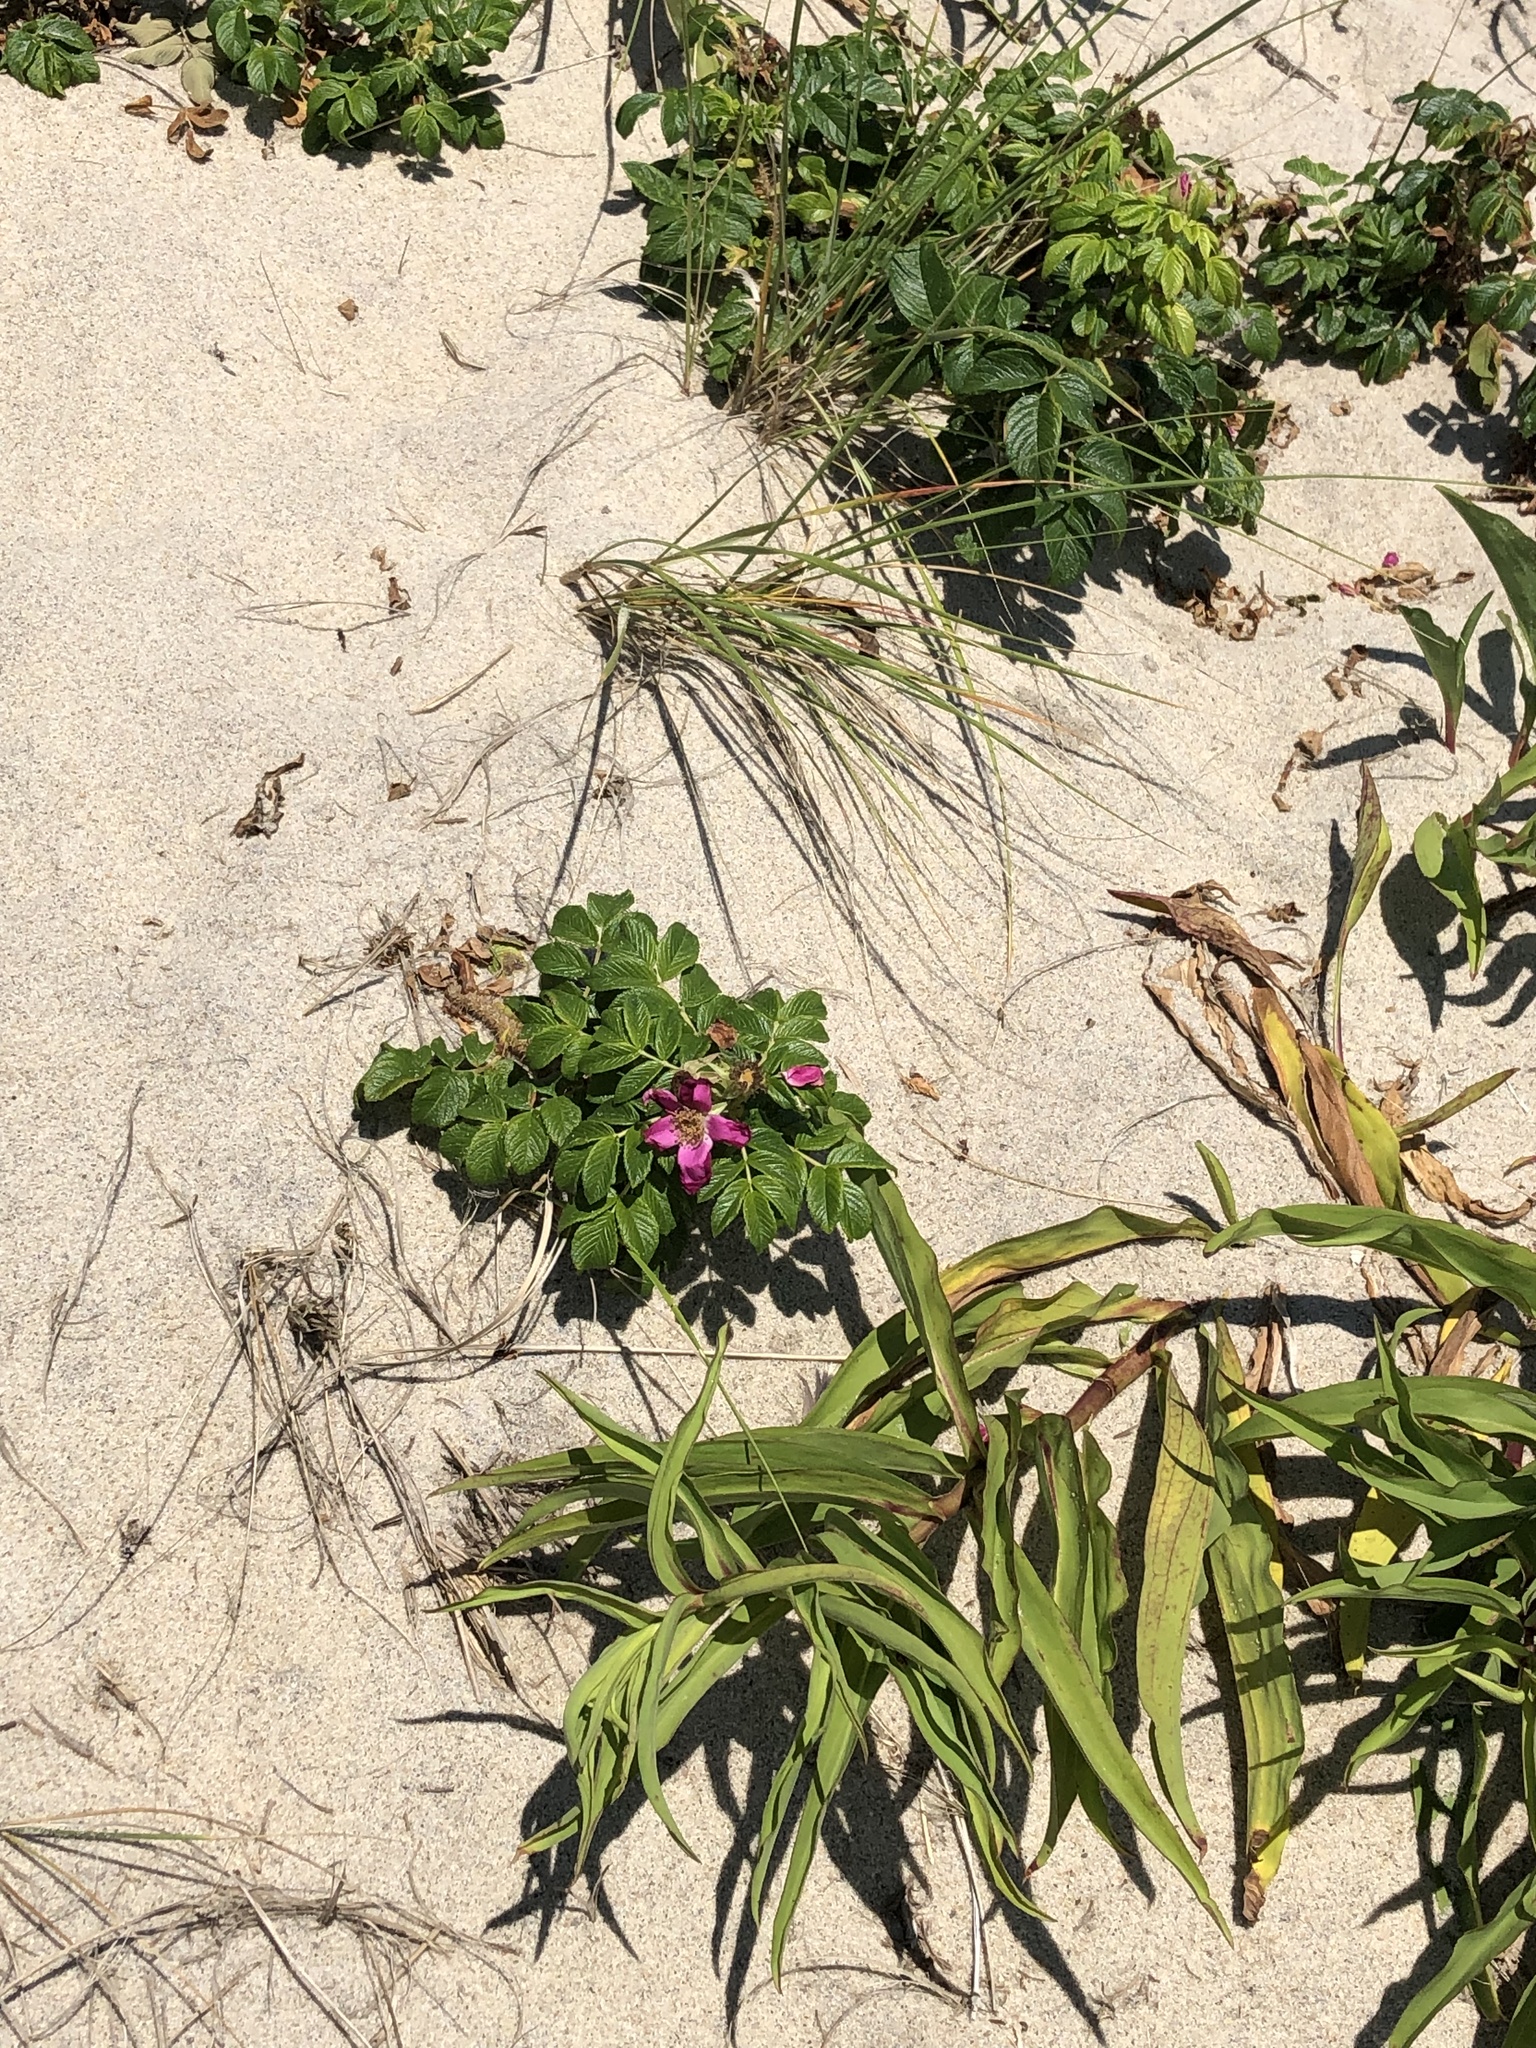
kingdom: Plantae
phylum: Tracheophyta
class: Magnoliopsida
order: Rosales
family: Rosaceae
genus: Rosa
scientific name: Rosa rugosa
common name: Japanese rose
